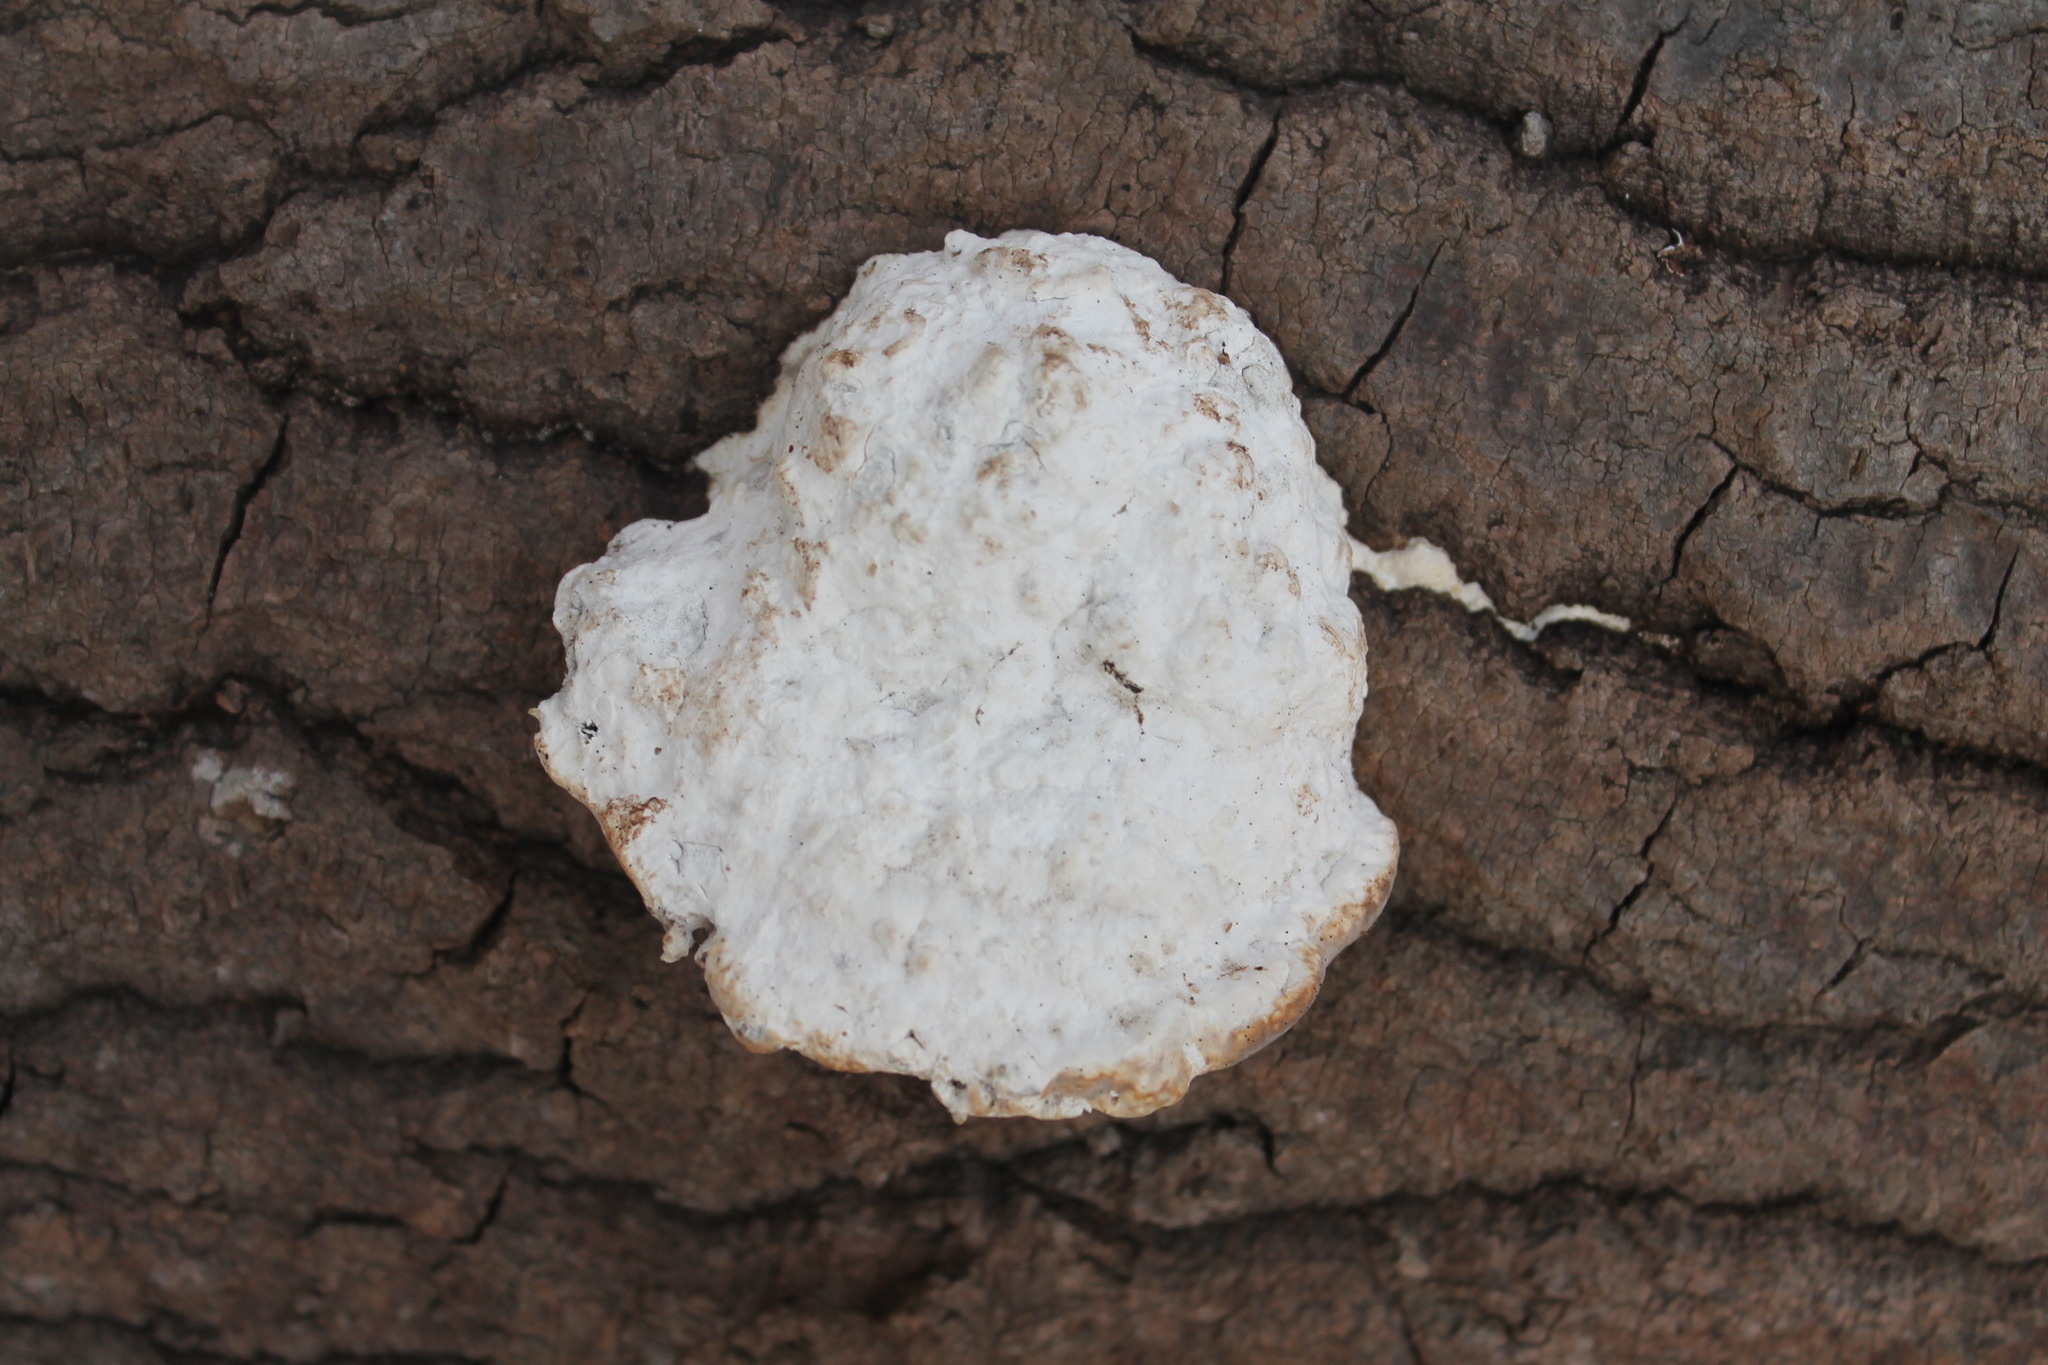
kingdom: Fungi
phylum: Basidiomycota
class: Agaricomycetes
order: Polyporales
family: Polyporaceae
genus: Trametes
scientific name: Trametes gibbosa
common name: Lumpy bracket
